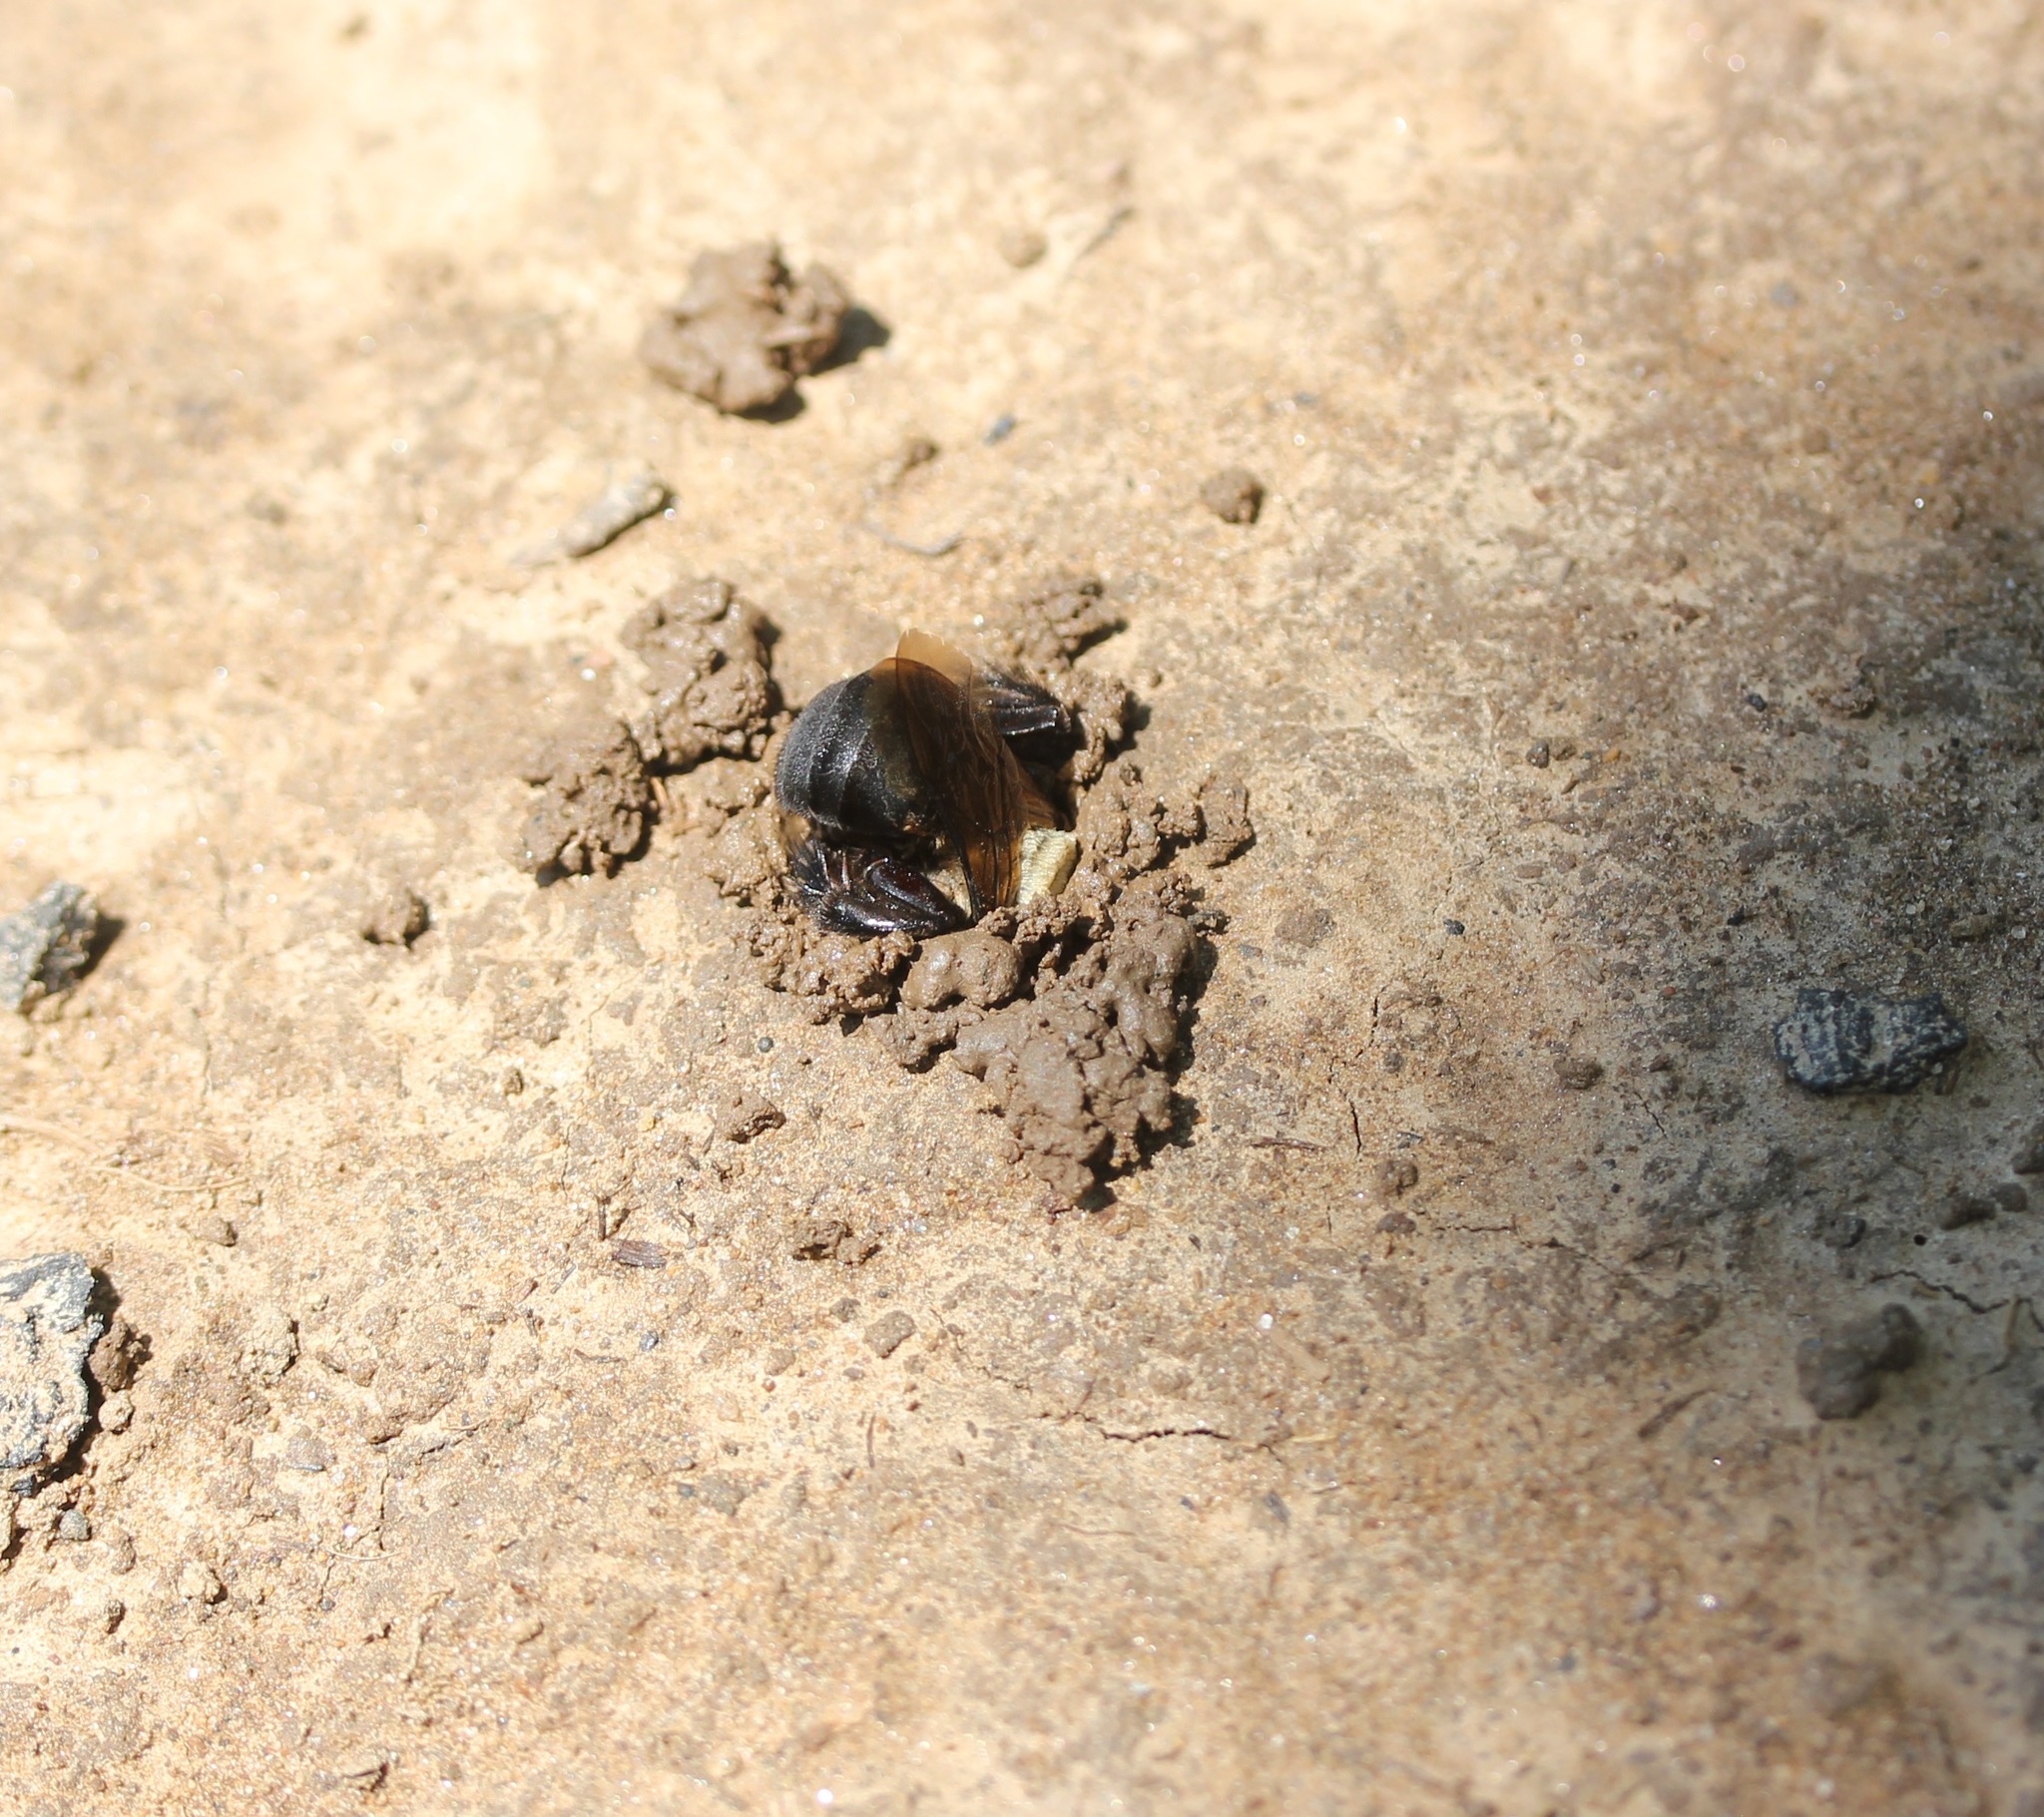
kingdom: Animalia
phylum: Arthropoda
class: Insecta
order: Hymenoptera
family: Apidae
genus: Ptilothrix
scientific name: Ptilothrix bombiformis
